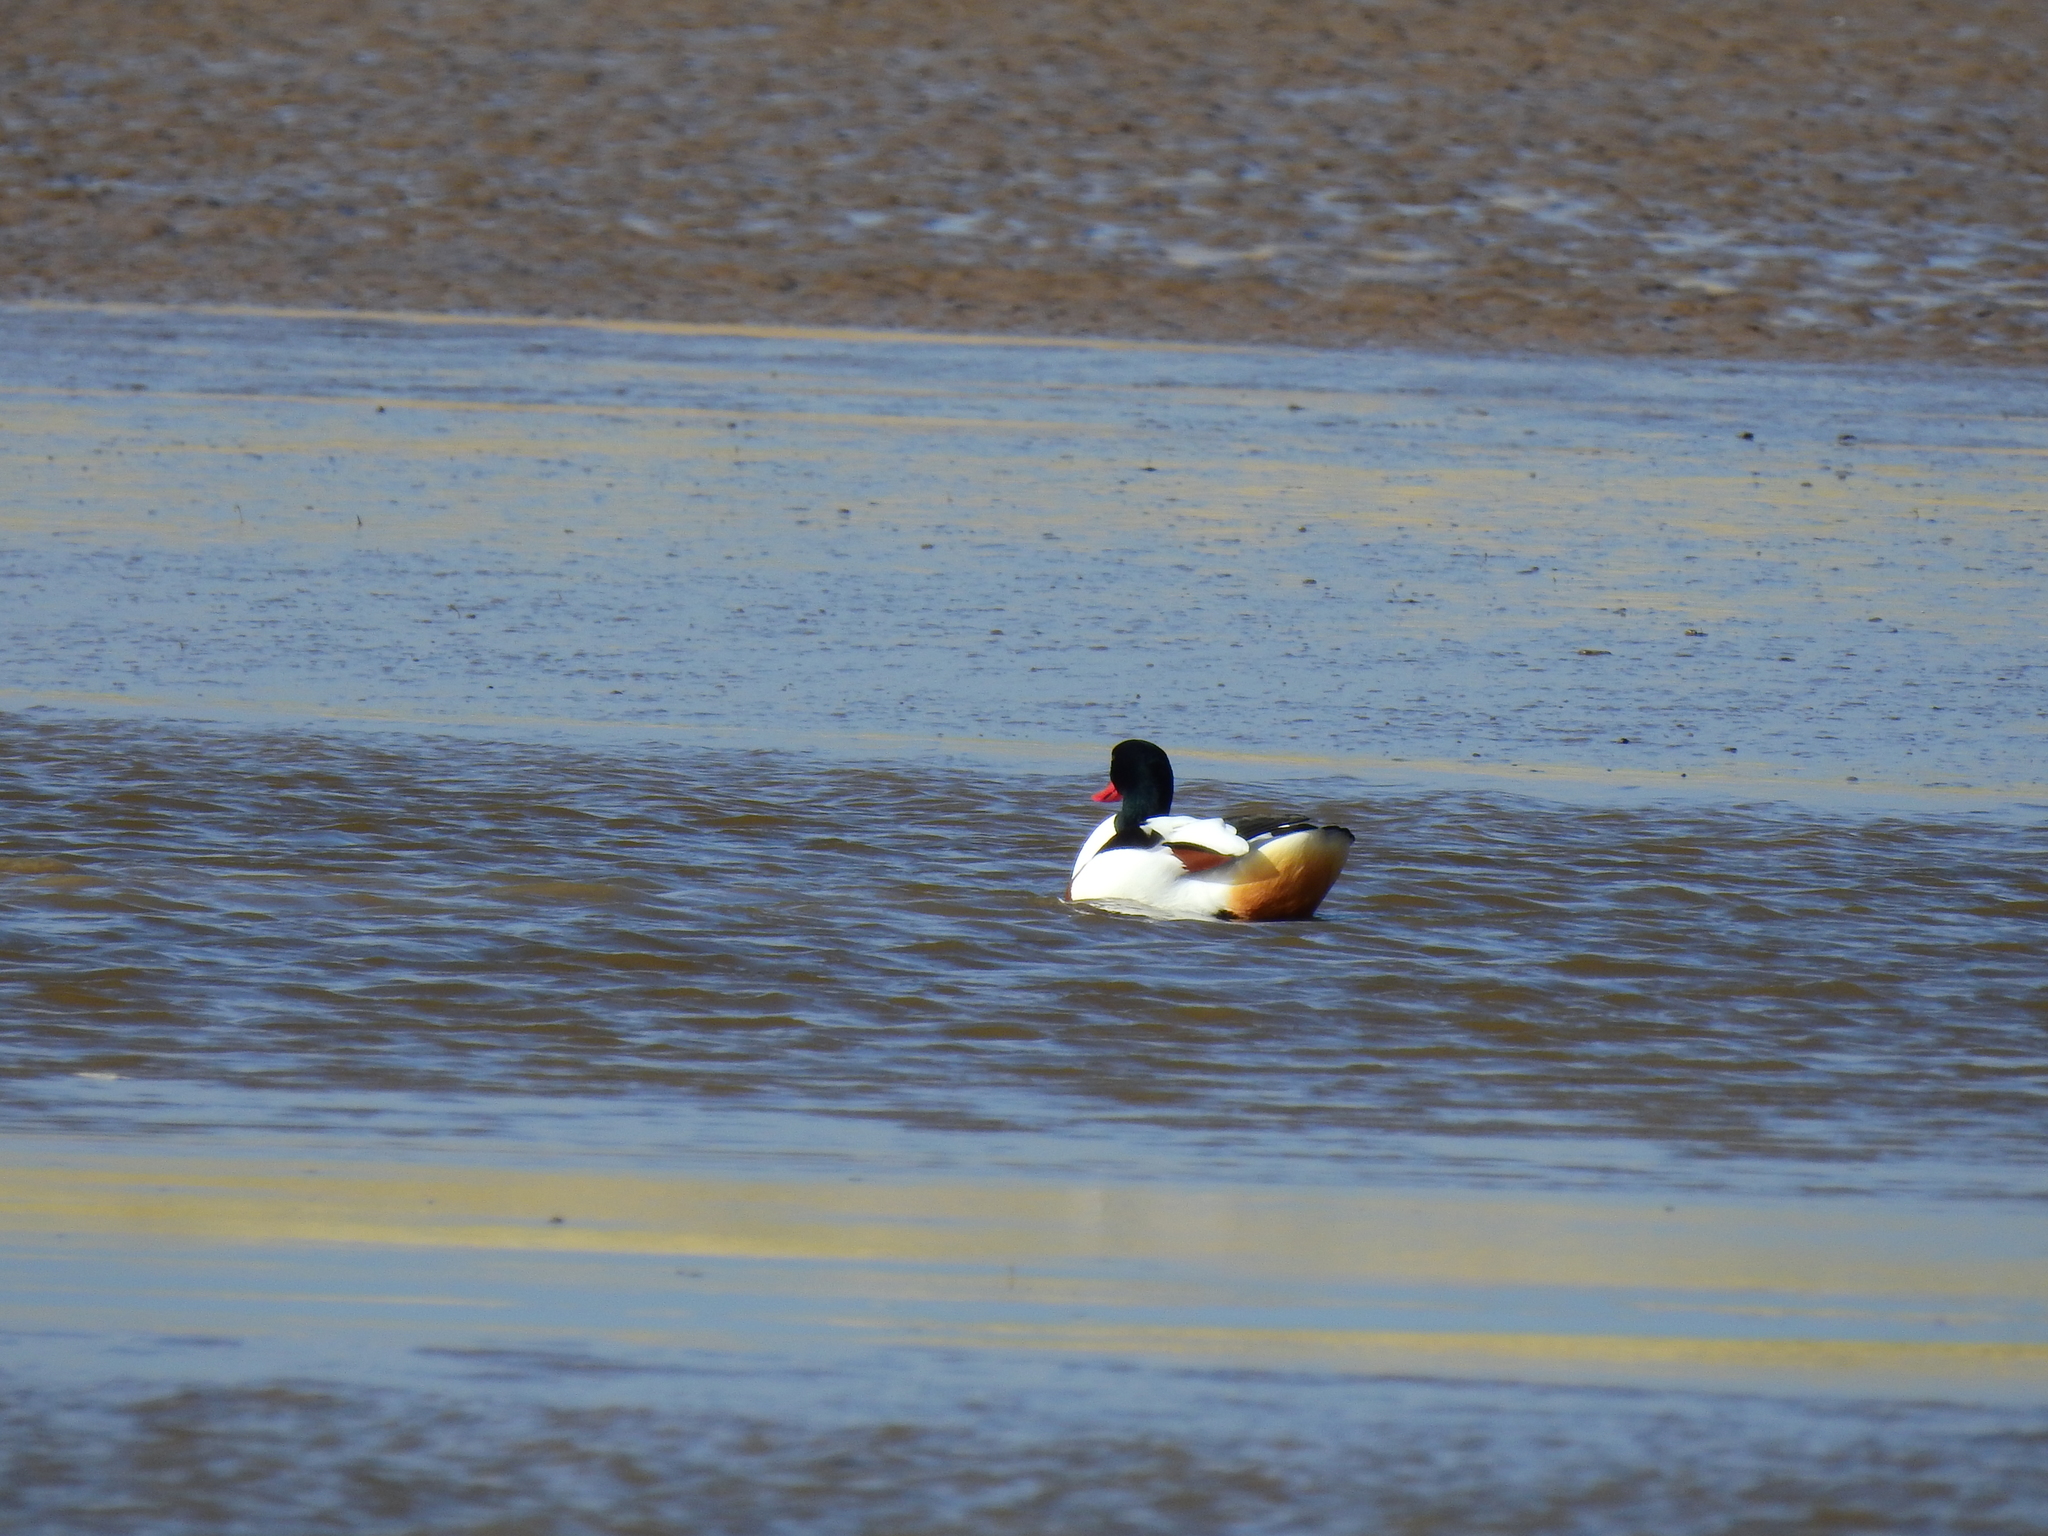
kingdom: Animalia
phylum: Chordata
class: Aves
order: Anseriformes
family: Anatidae
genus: Tadorna
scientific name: Tadorna tadorna
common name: Common shelduck
